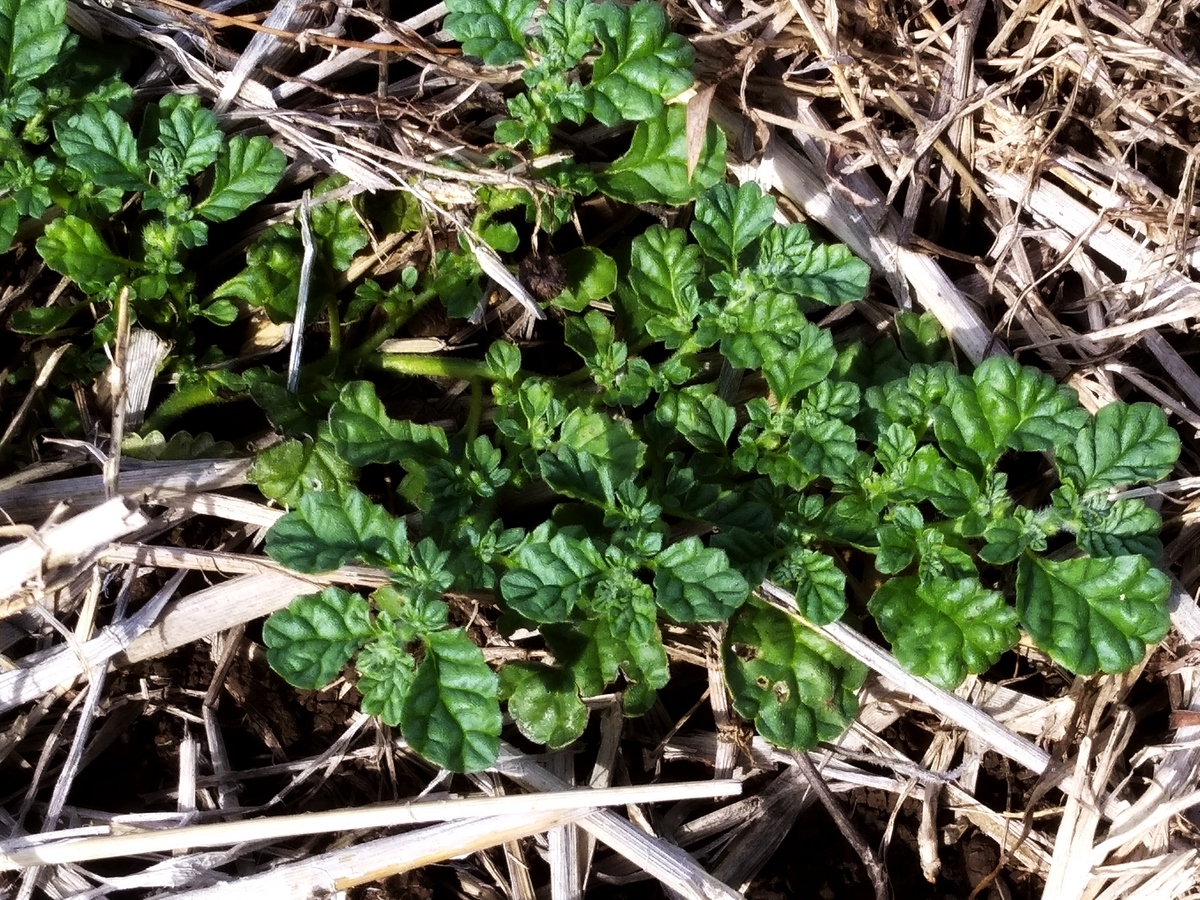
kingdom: Plantae
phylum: Tracheophyta
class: Magnoliopsida
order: Boraginales
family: Coldeniaceae
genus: Coldenia
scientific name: Coldenia procumbens
